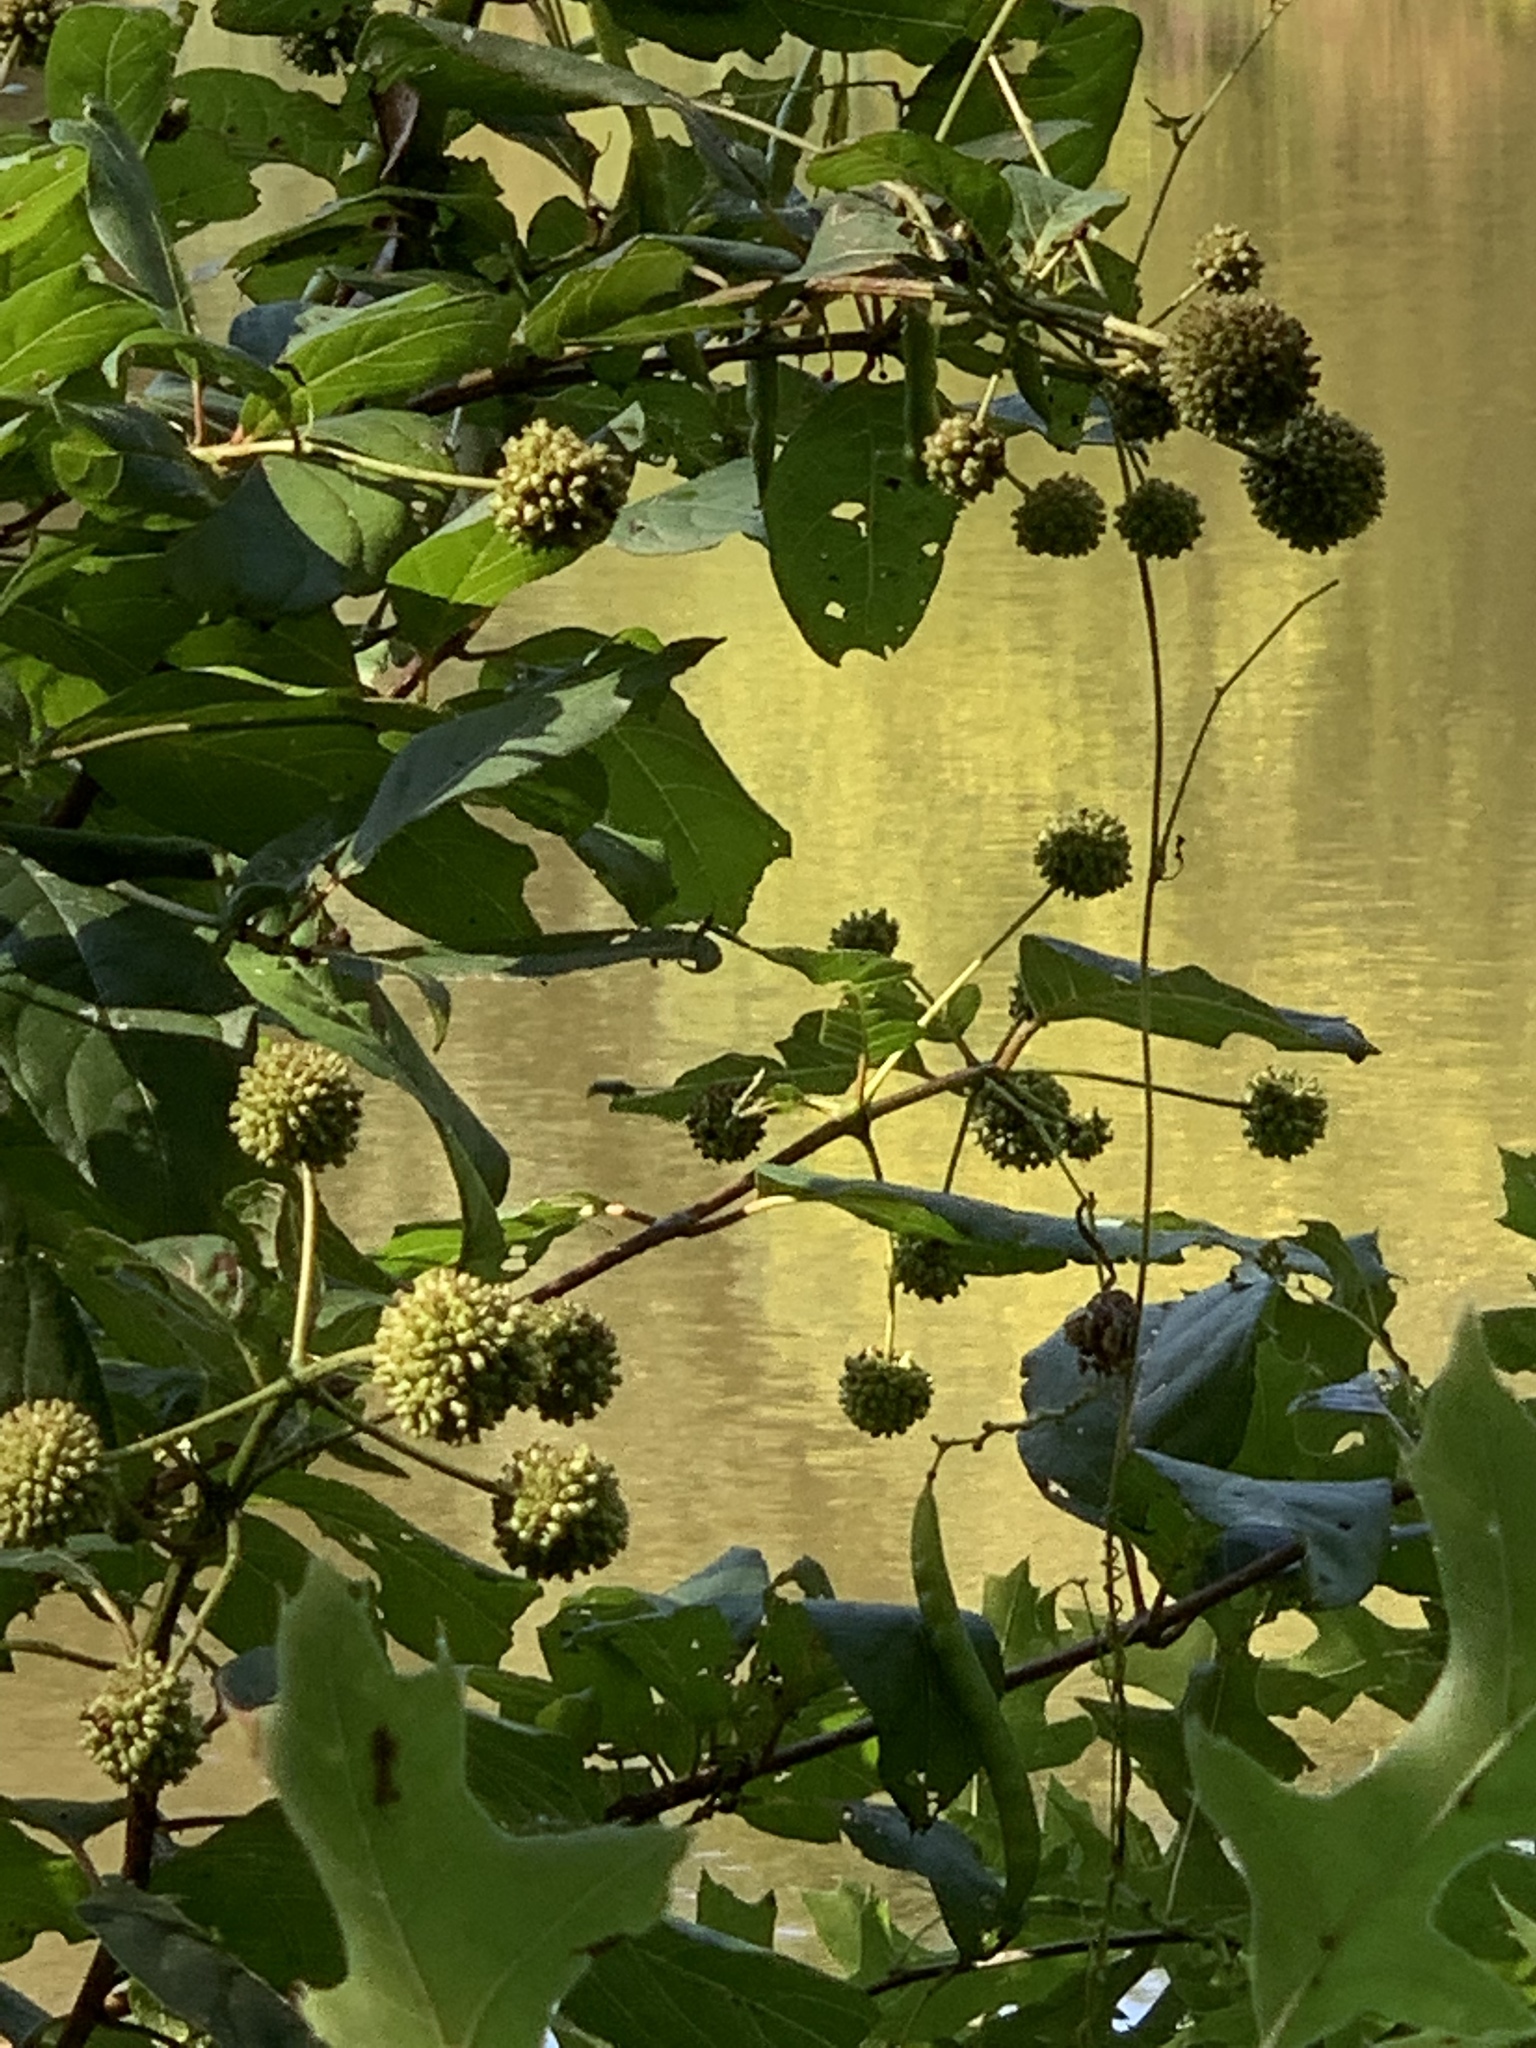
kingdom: Plantae
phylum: Tracheophyta
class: Magnoliopsida
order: Gentianales
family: Rubiaceae
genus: Cephalanthus
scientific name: Cephalanthus occidentalis
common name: Button-willow
